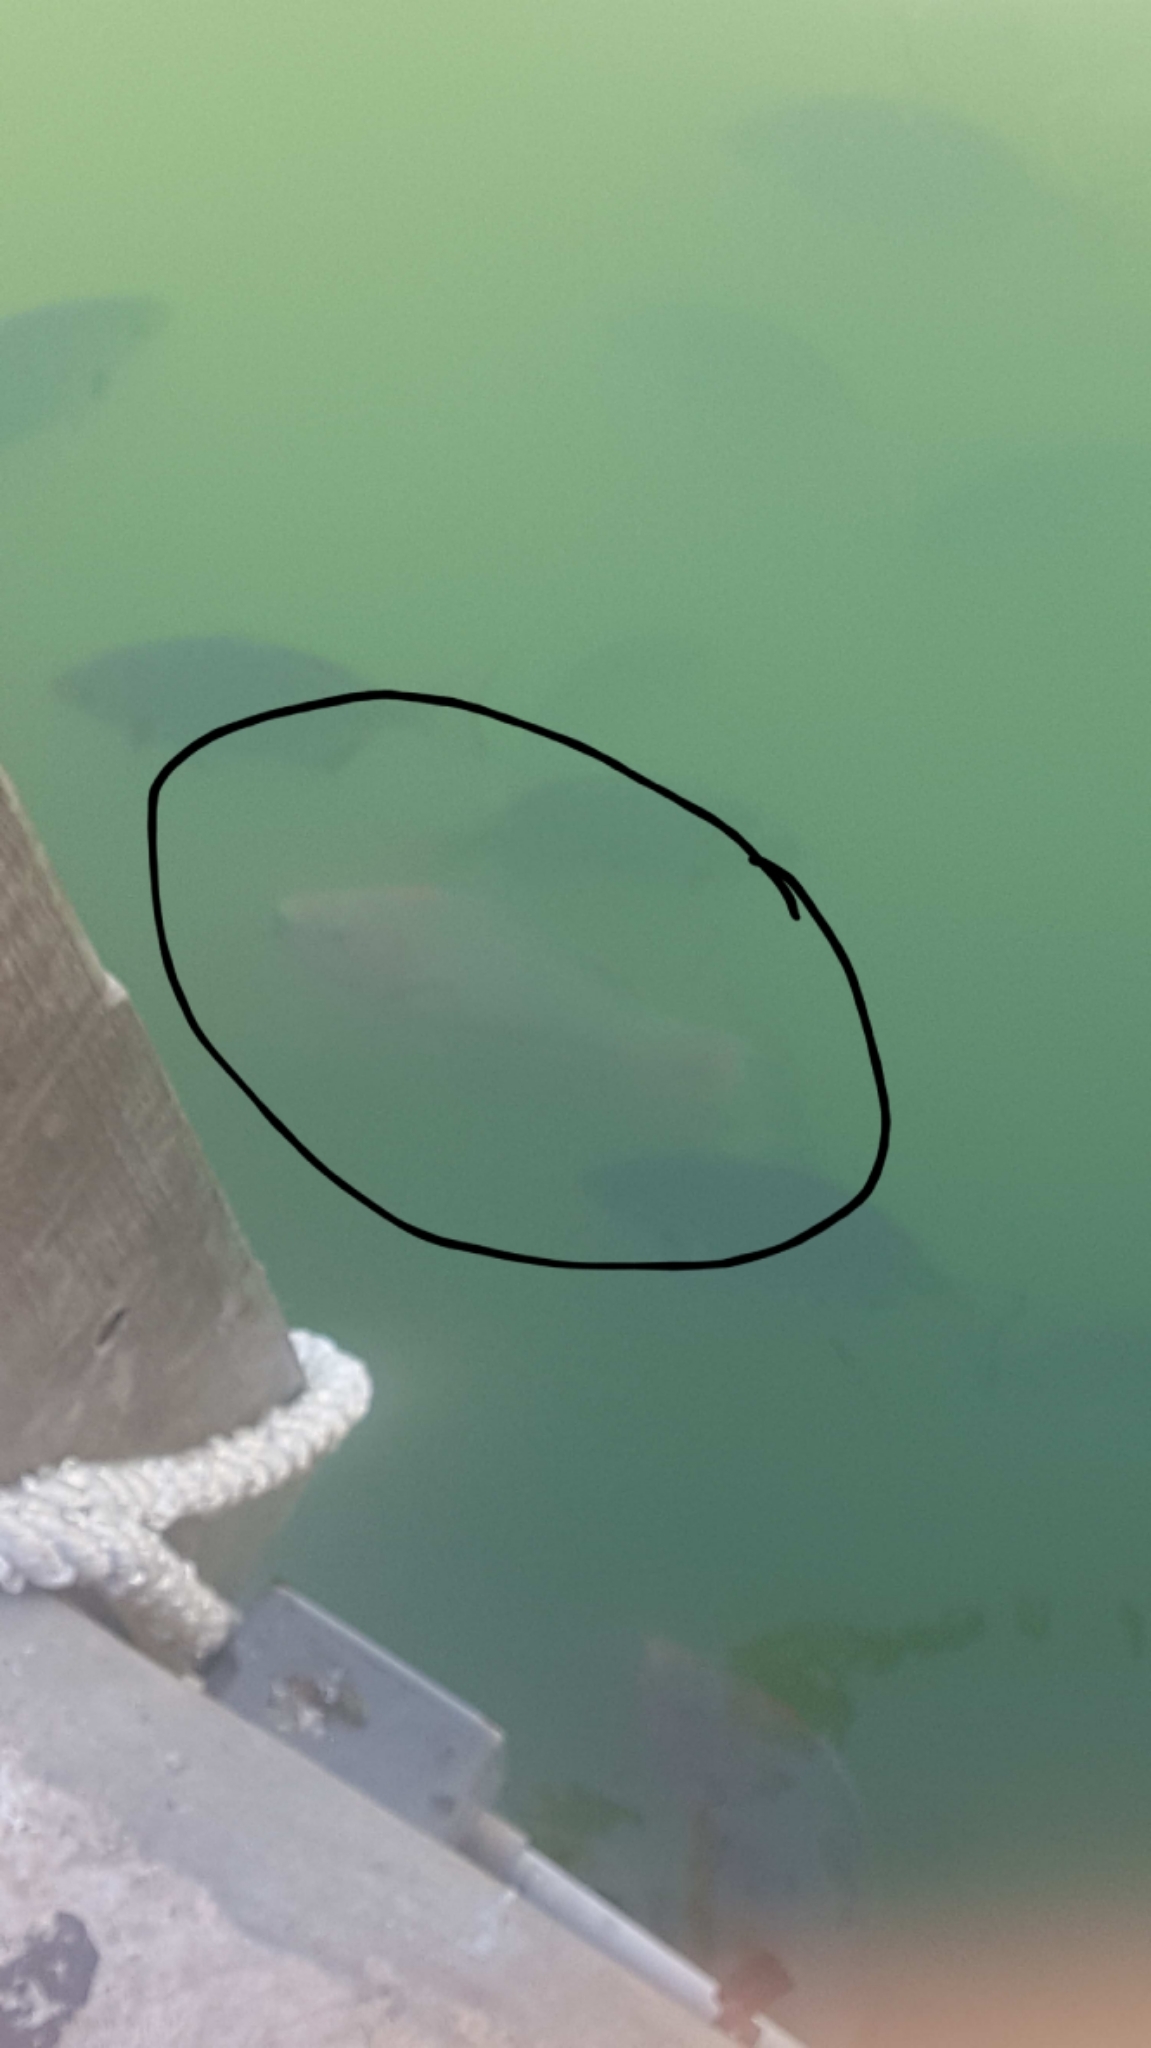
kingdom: Animalia
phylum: Chordata
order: Perciformes
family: Scaridae
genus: Scarus
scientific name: Scarus guacamaia
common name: Rainbow parrotfish
